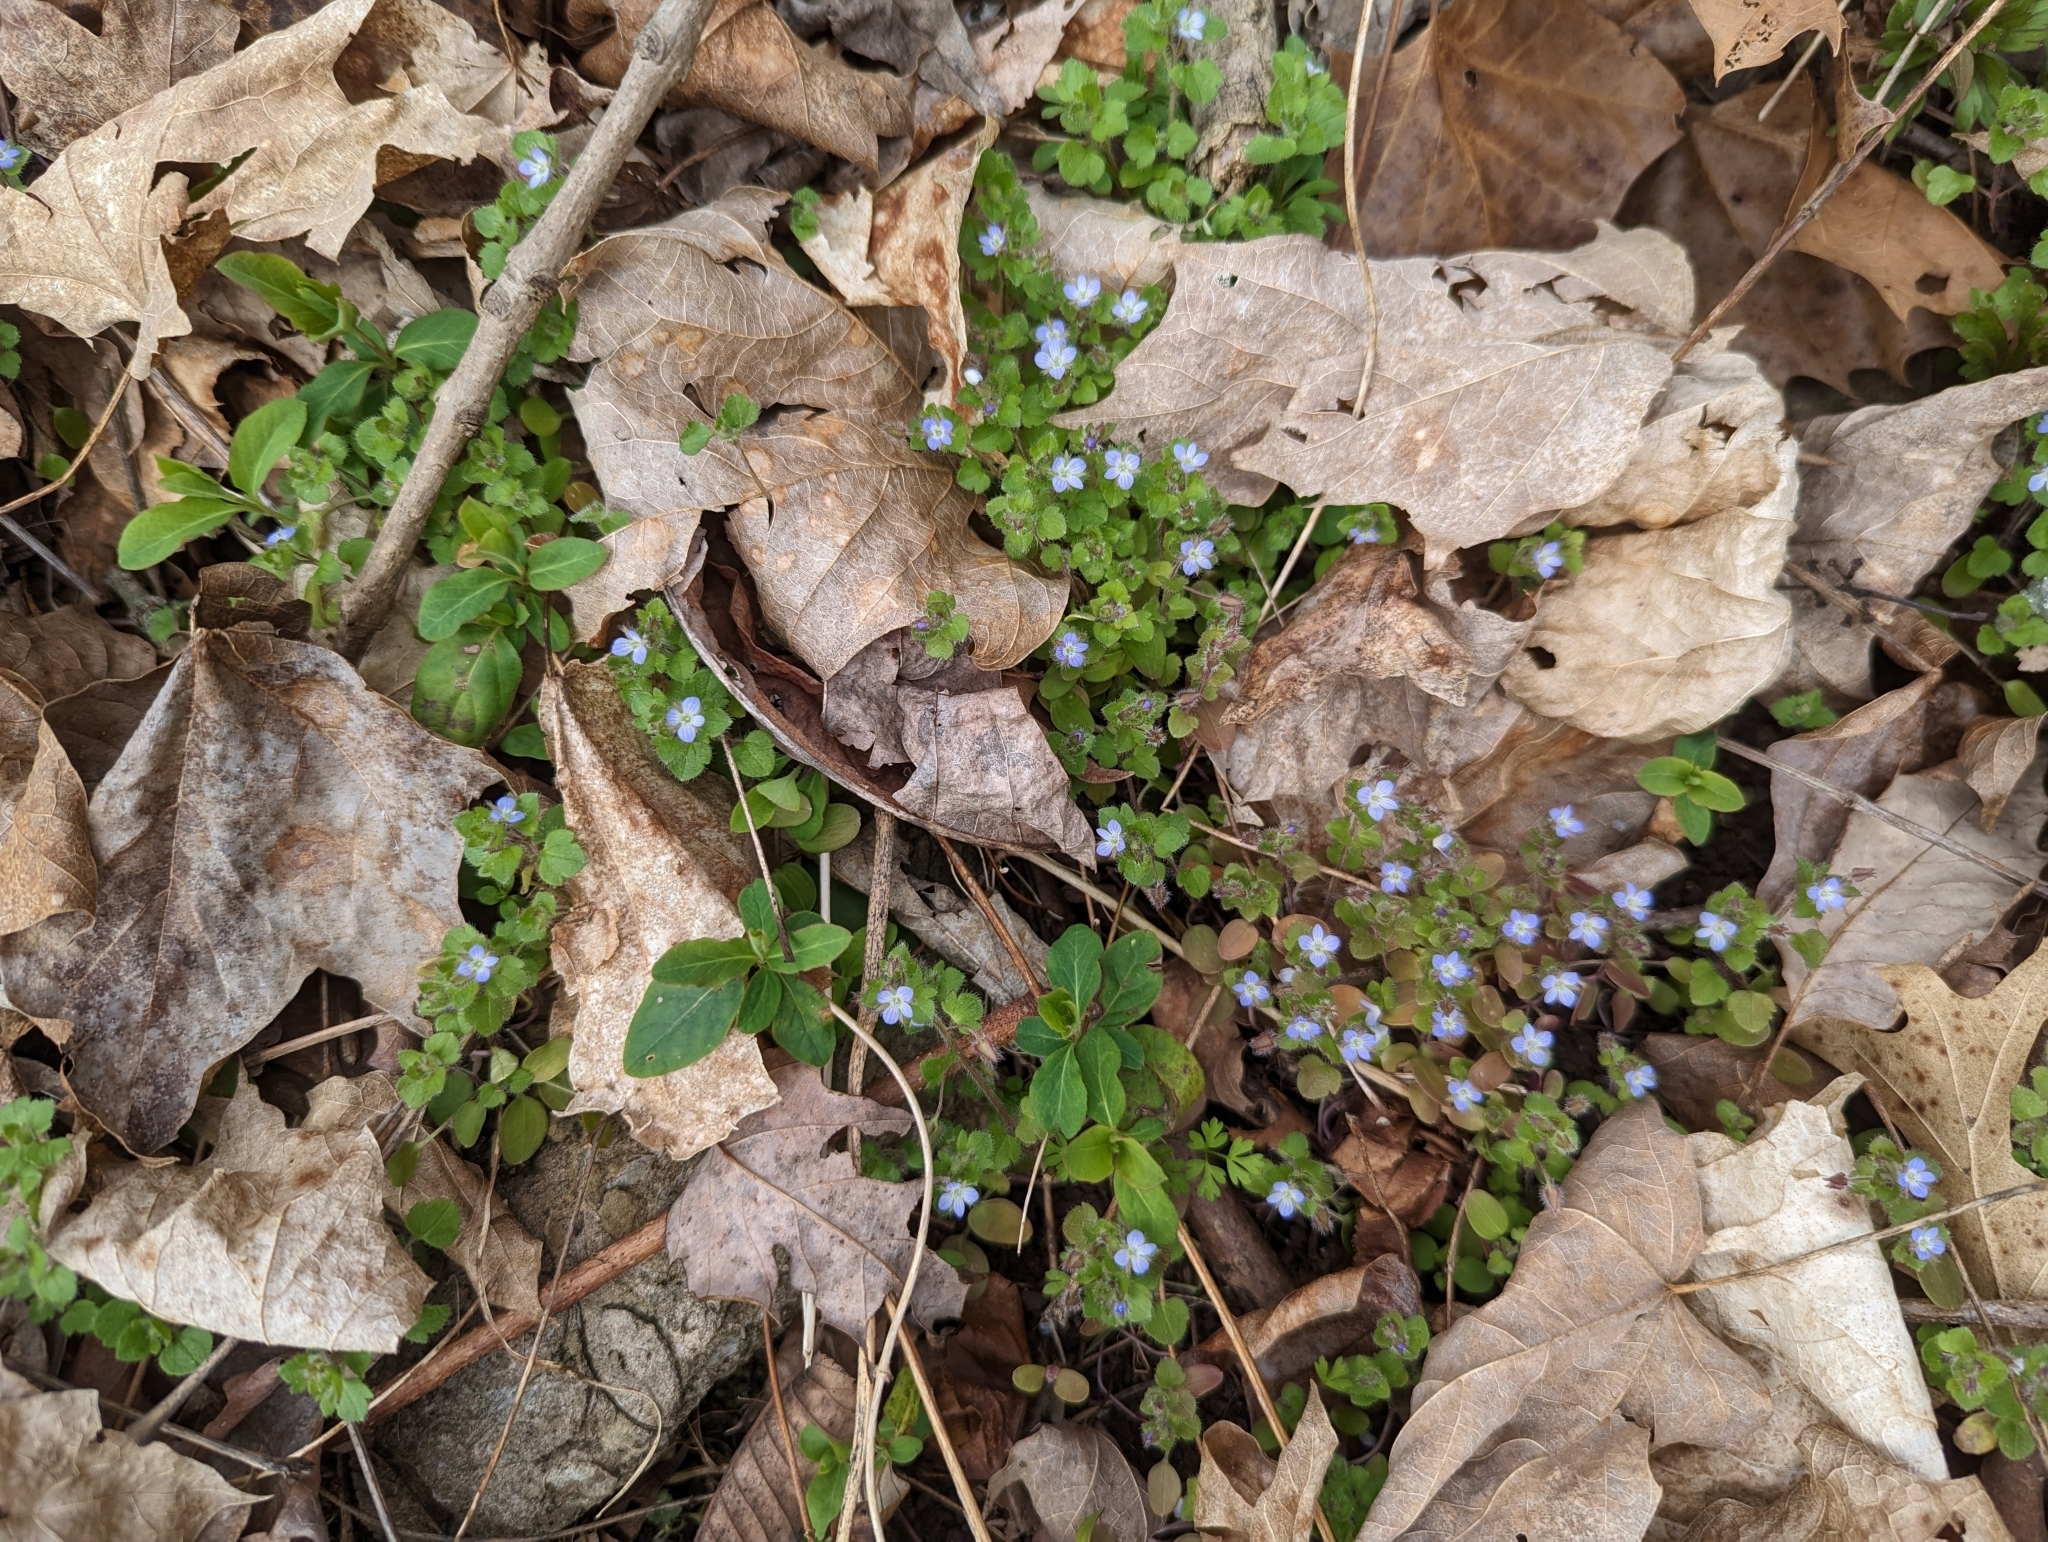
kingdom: Plantae
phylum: Tracheophyta
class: Magnoliopsida
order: Lamiales
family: Plantaginaceae
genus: Veronica
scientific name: Veronica hederifolia
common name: Ivy-leaved speedwell
